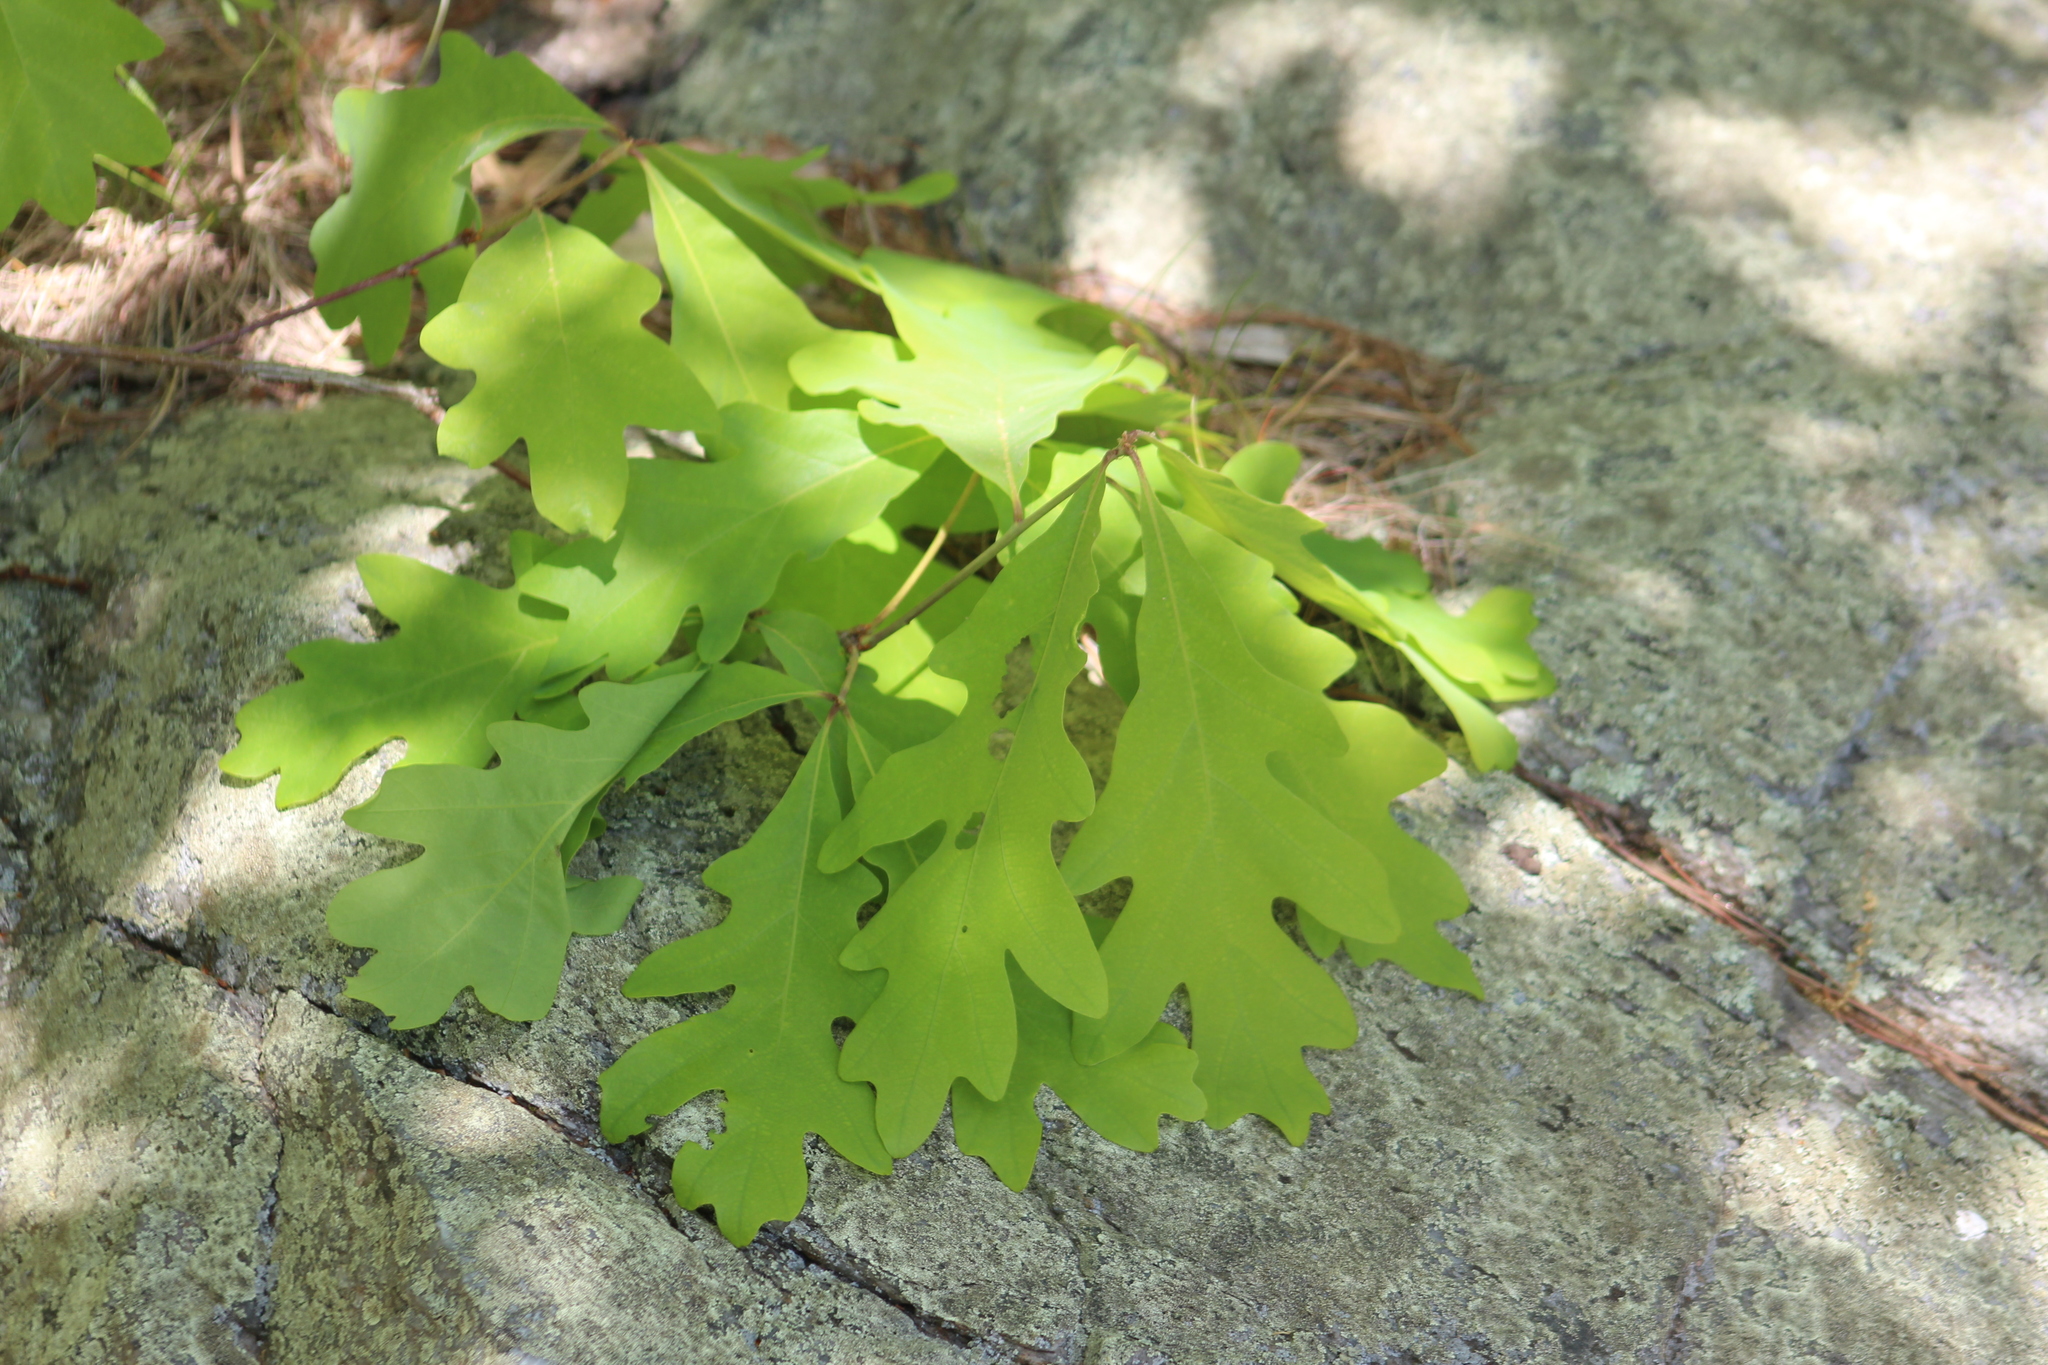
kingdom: Plantae
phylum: Tracheophyta
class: Magnoliopsida
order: Fagales
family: Fagaceae
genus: Quercus
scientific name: Quercus alba
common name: White oak
